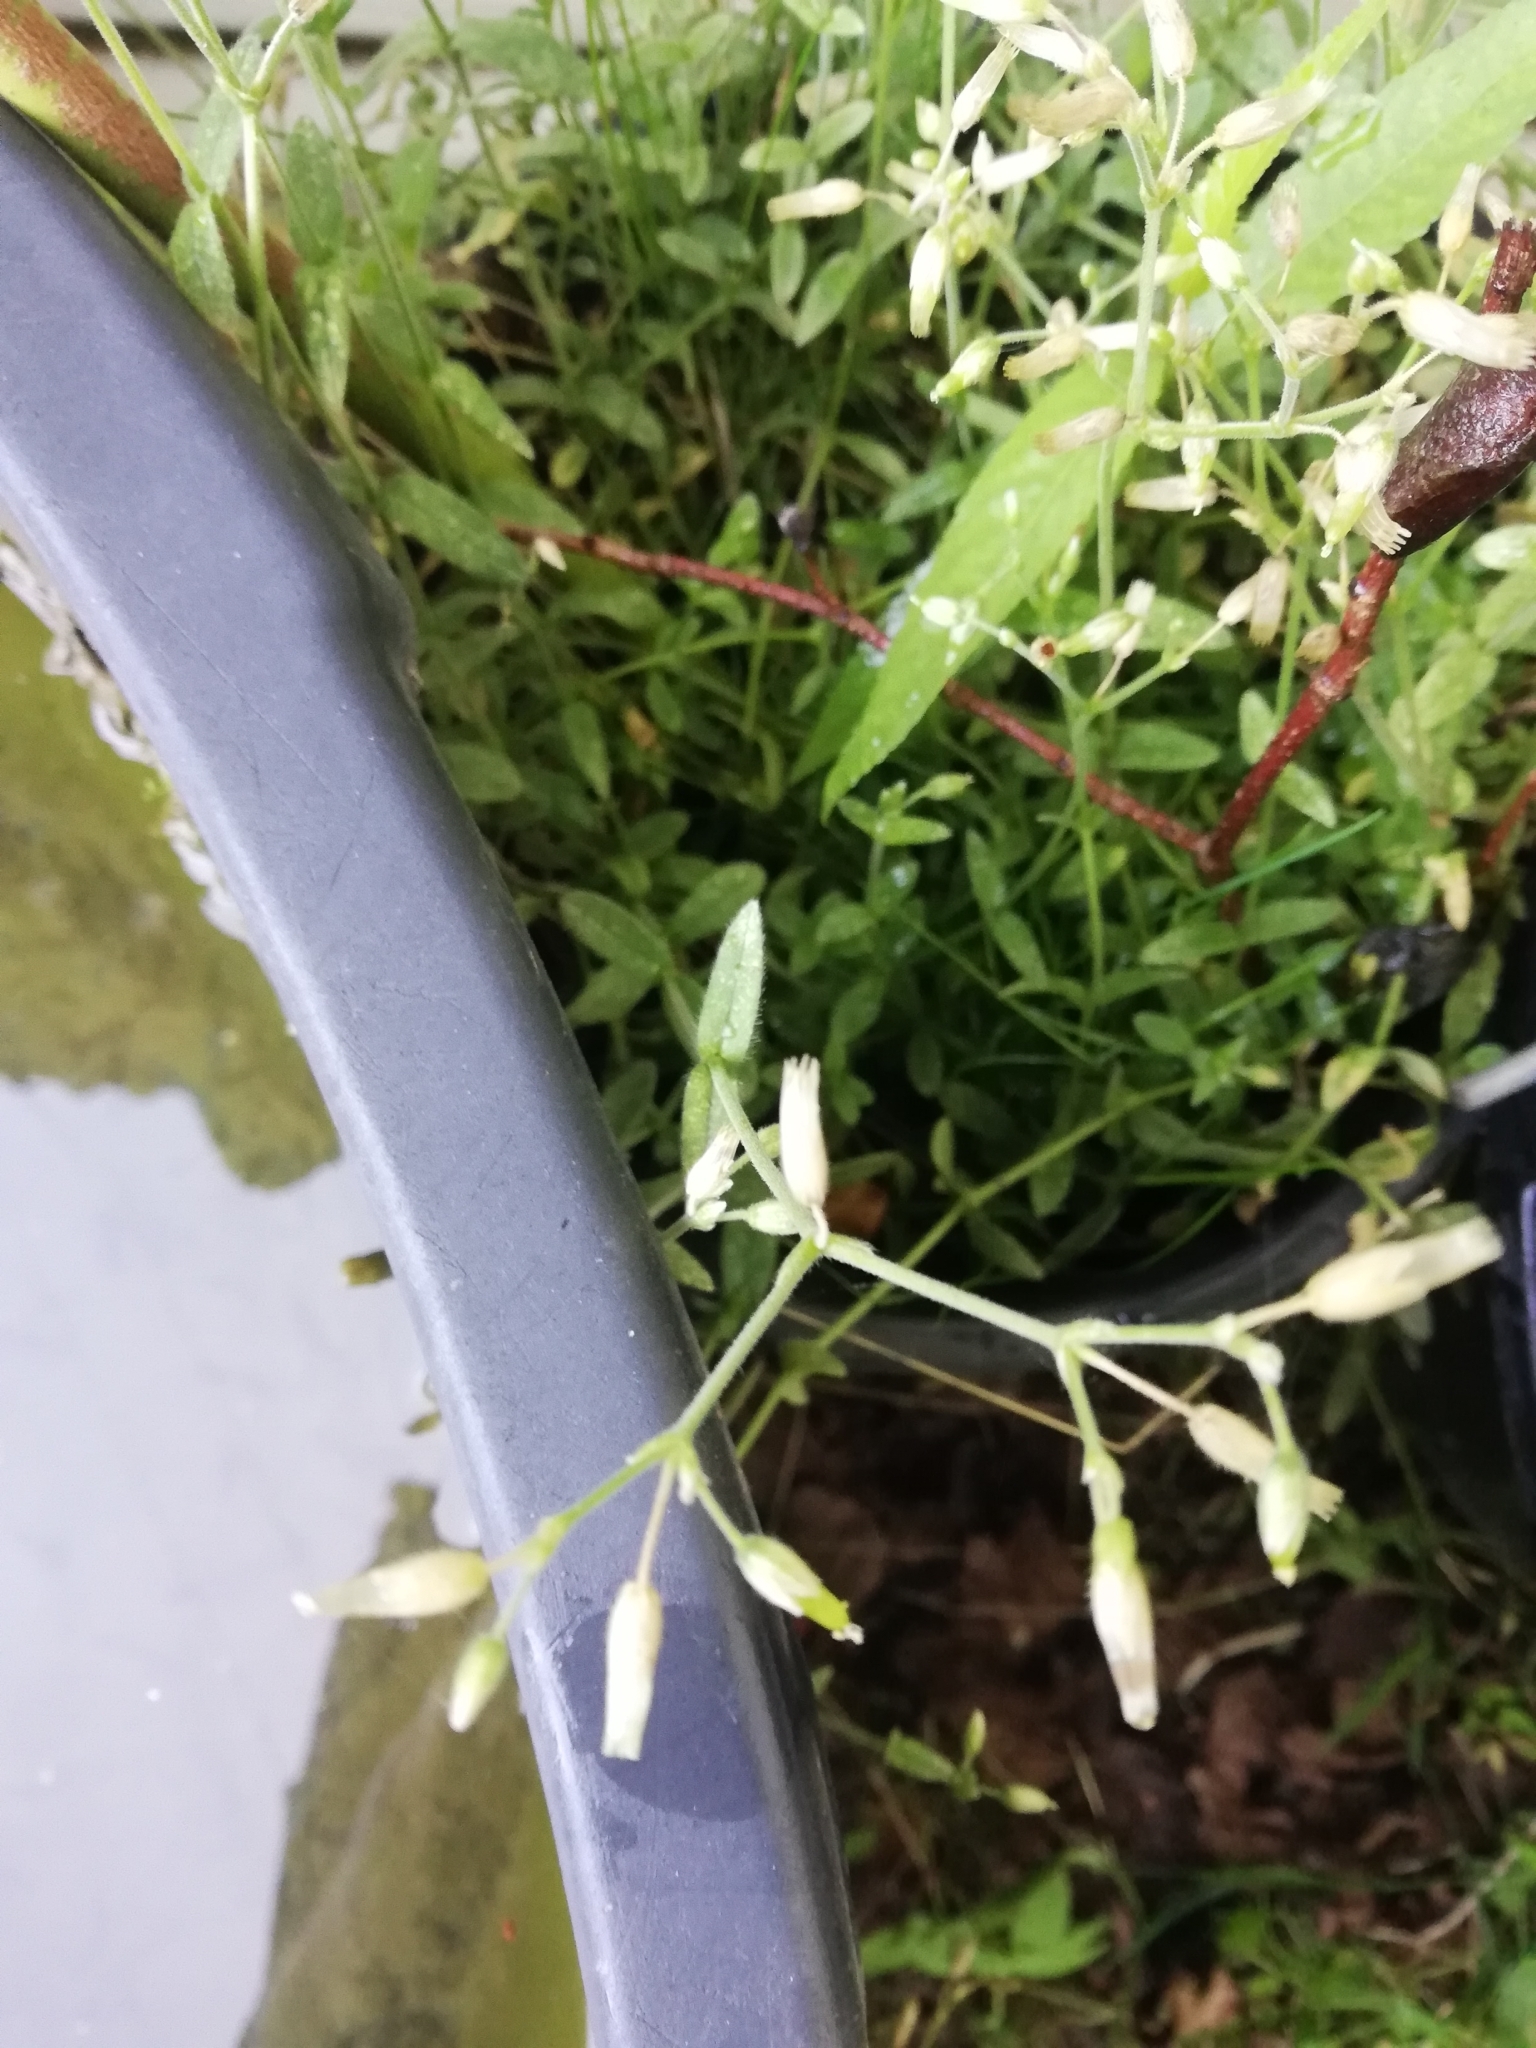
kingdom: Plantae
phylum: Tracheophyta
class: Magnoliopsida
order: Caryophyllales
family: Caryophyllaceae
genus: Cerastium
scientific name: Cerastium holosteoides
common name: Big chickweed
